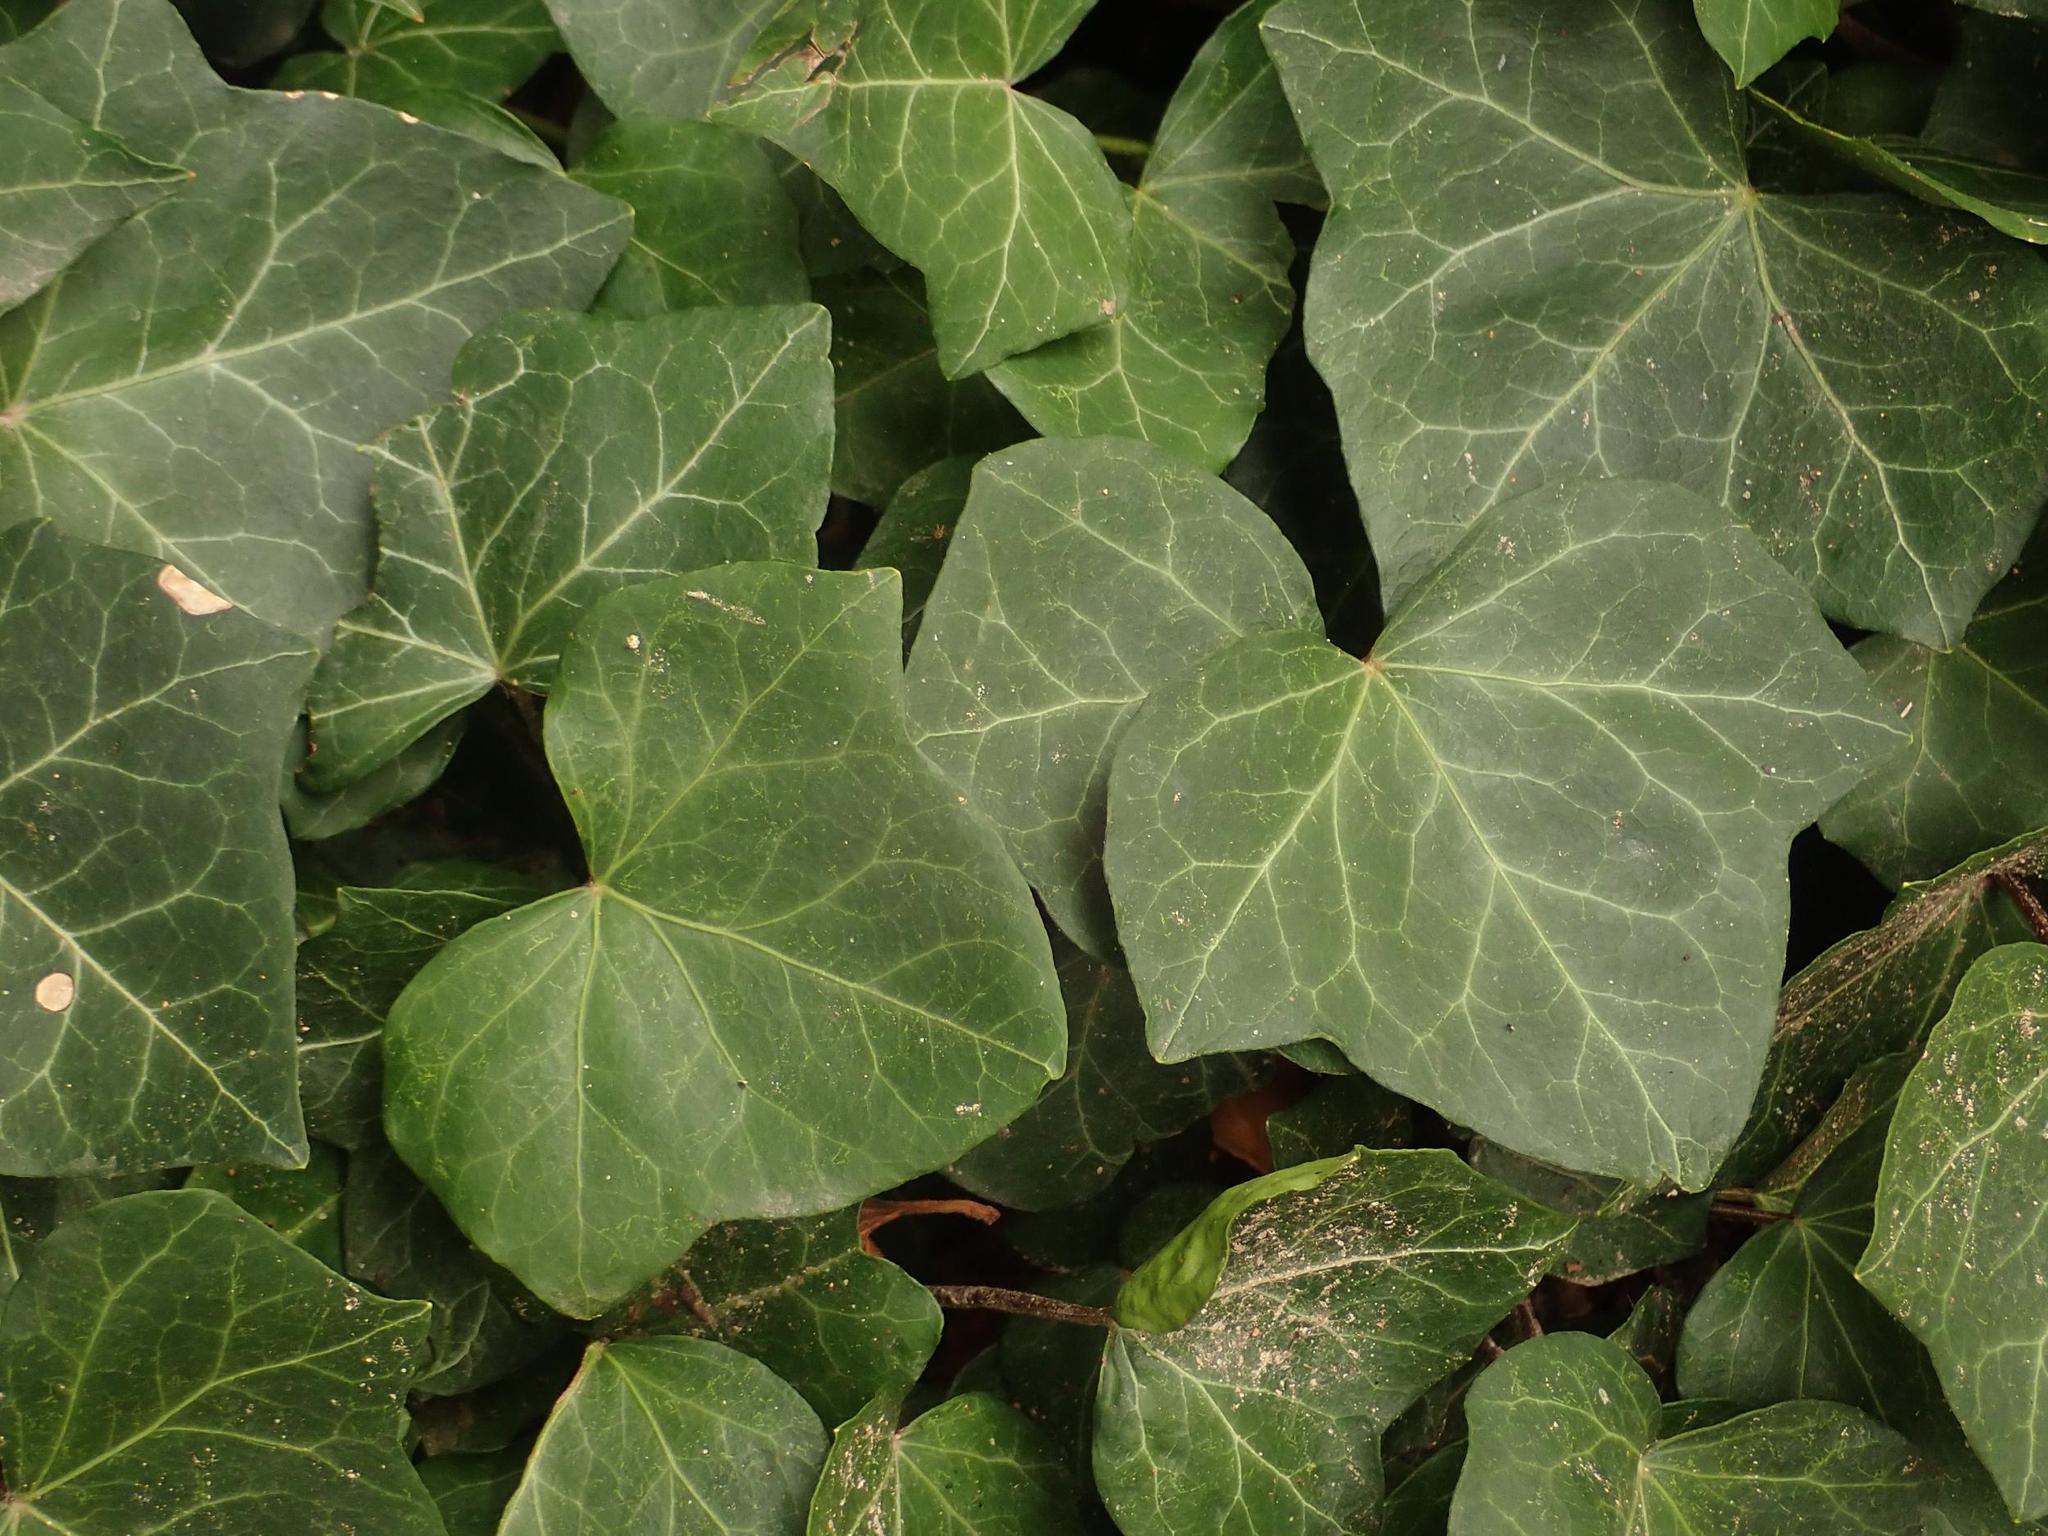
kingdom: Plantae
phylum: Tracheophyta
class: Magnoliopsida
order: Apiales
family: Araliaceae
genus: Hedera
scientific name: Hedera helix
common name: Ivy
